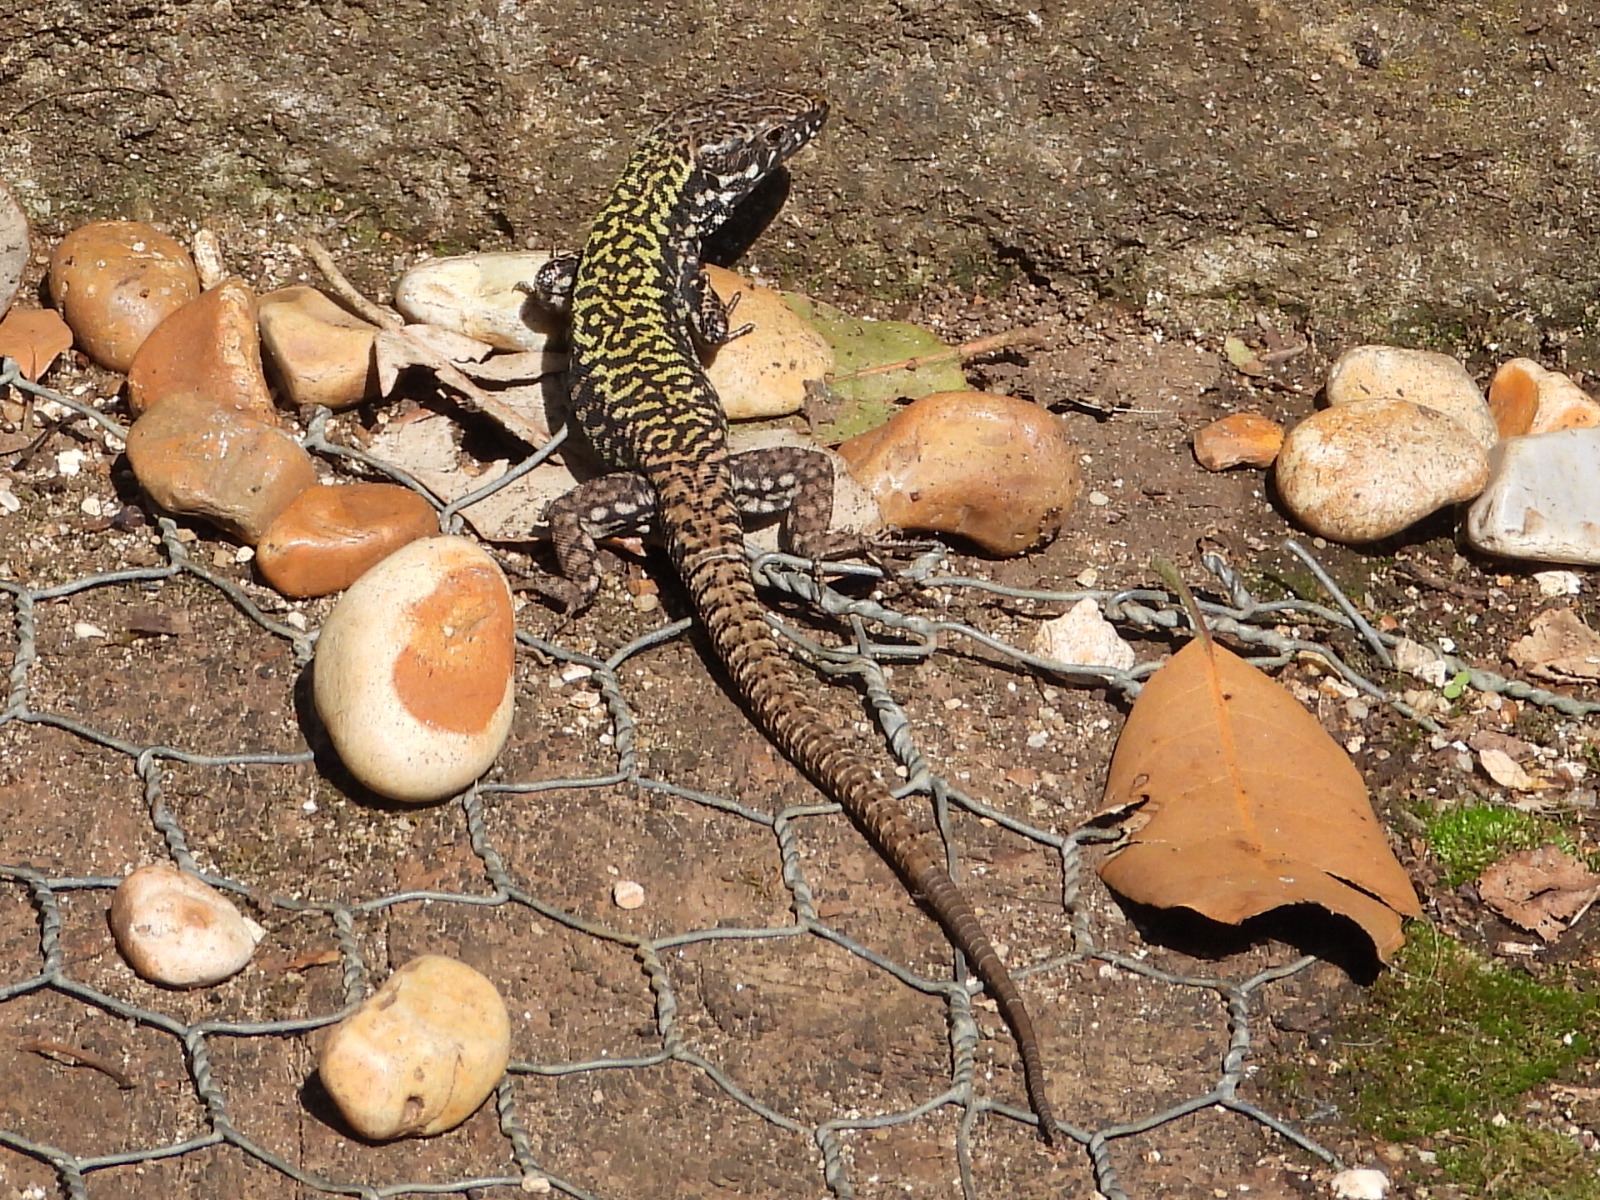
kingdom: Animalia
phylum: Chordata
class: Squamata
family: Lacertidae
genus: Podarcis
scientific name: Podarcis muralis
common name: Common wall lizard
